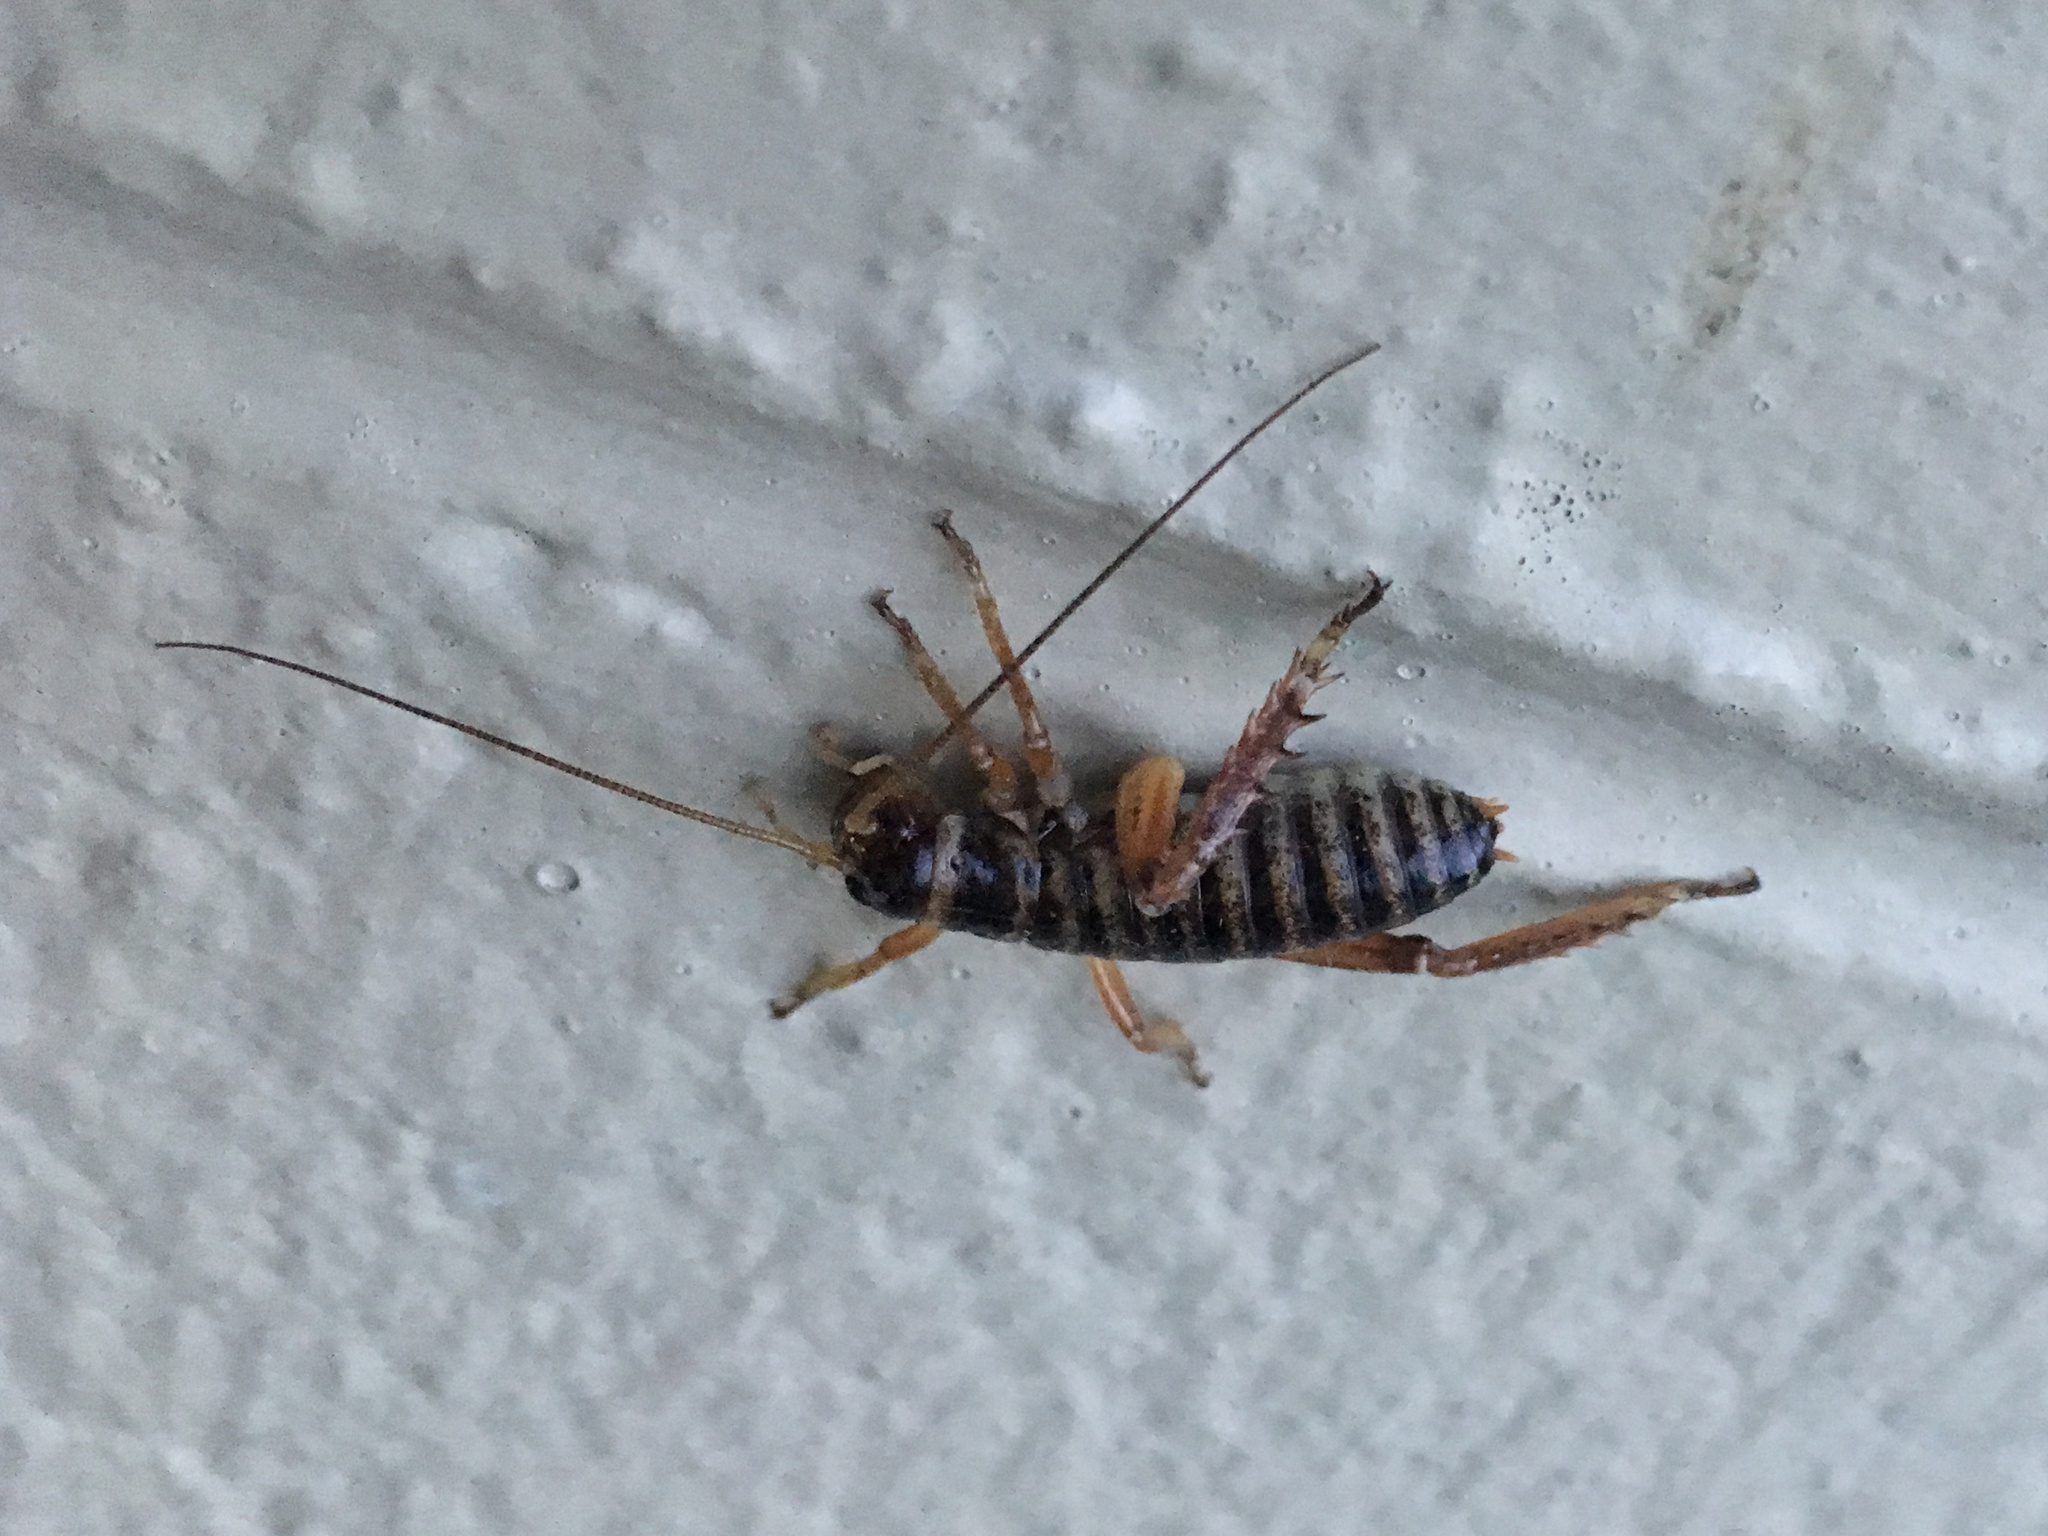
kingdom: Animalia
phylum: Arthropoda
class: Insecta
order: Orthoptera
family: Anostostomatidae
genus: Hemideina
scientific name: Hemideina maori
